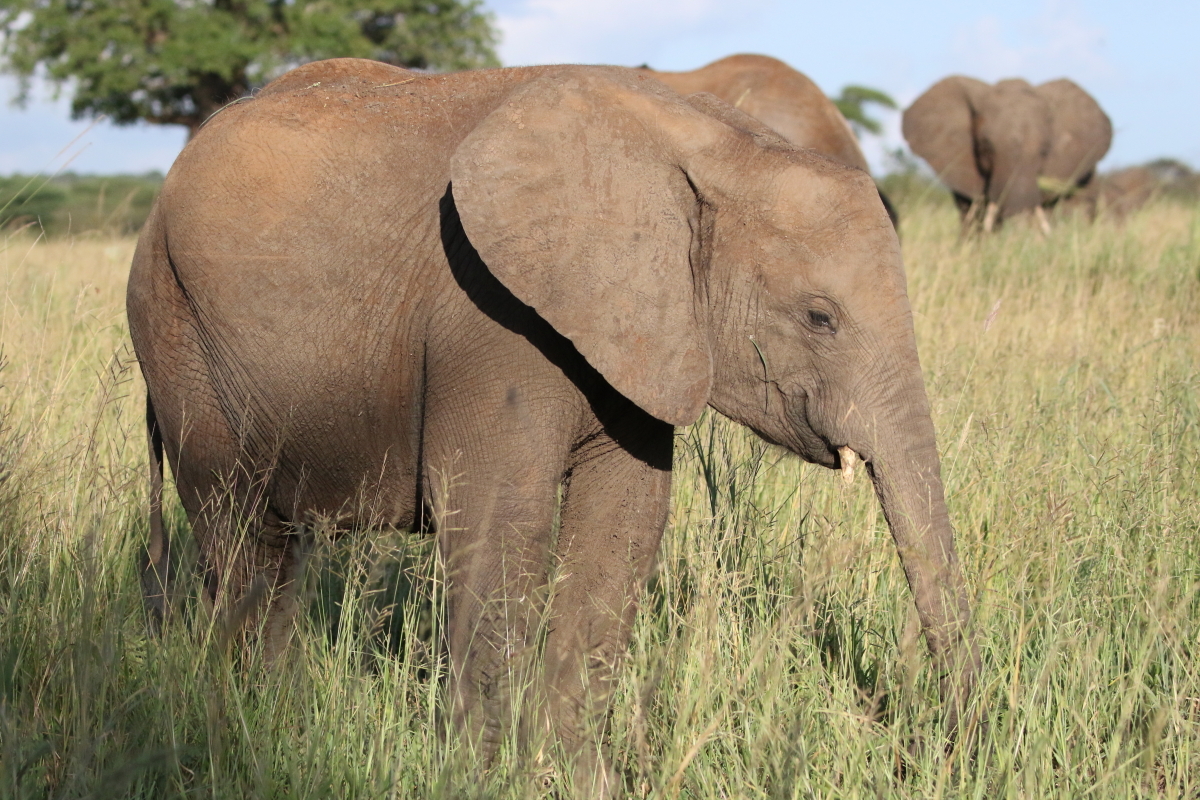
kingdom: Animalia
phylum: Chordata
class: Mammalia
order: Proboscidea
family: Elephantidae
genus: Loxodonta
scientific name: Loxodonta africana
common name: African elephant
